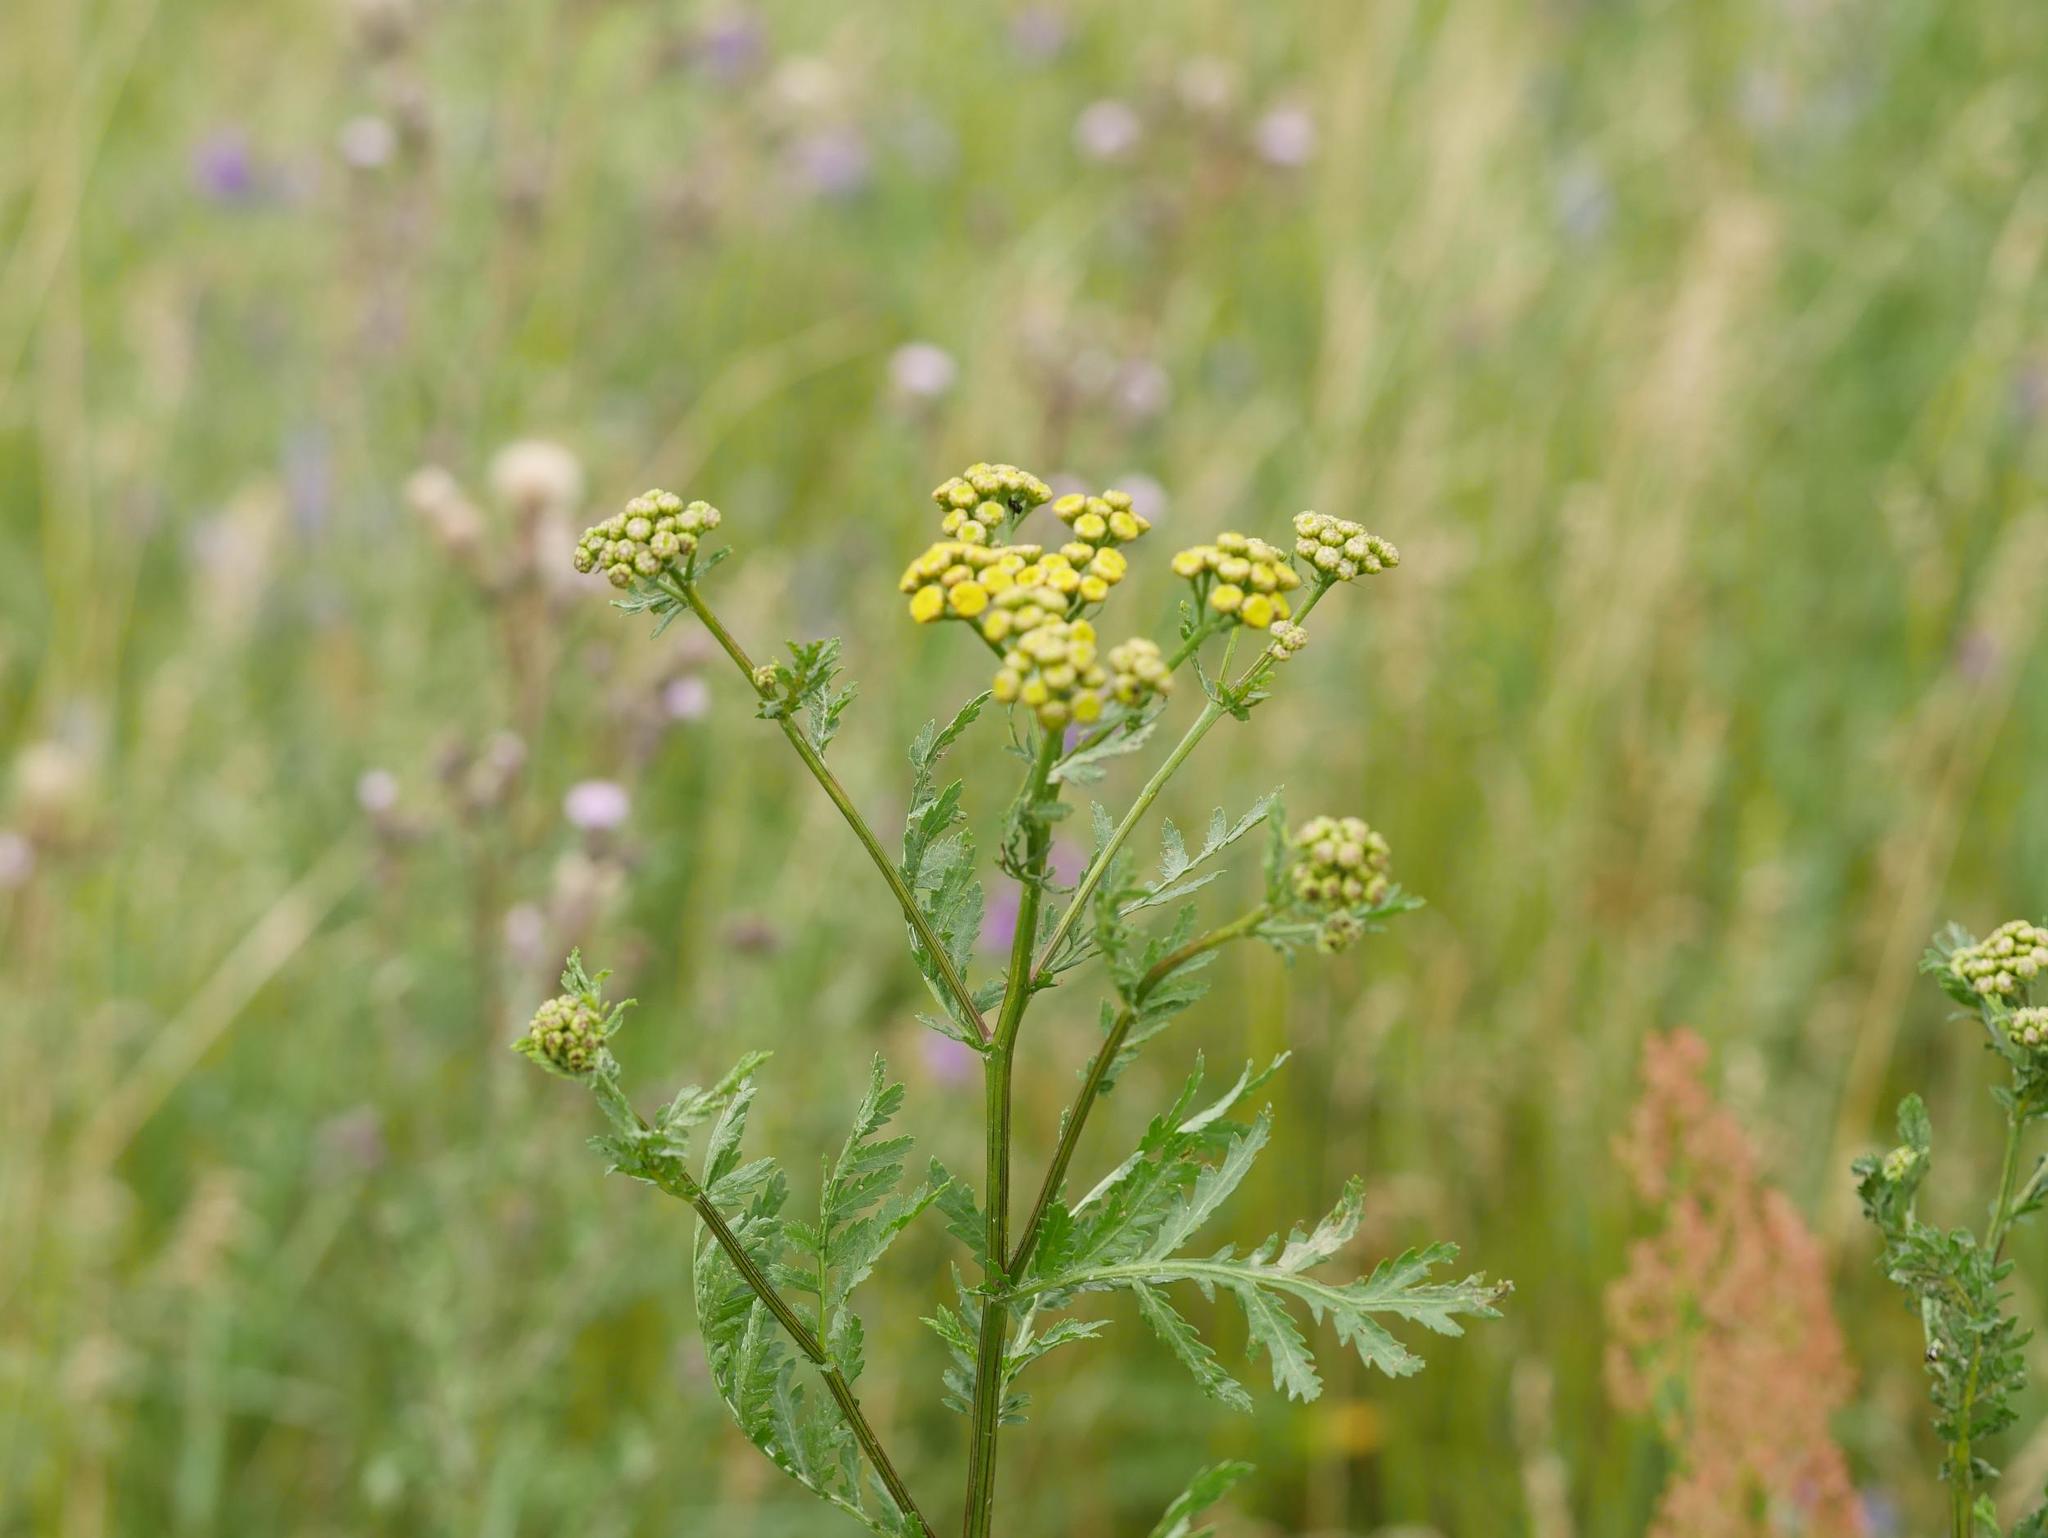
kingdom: Plantae
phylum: Tracheophyta
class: Magnoliopsida
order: Asterales
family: Asteraceae
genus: Tanacetum
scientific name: Tanacetum vulgare
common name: Common tansy
